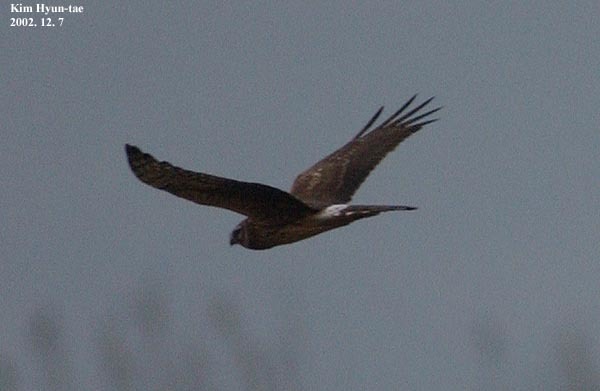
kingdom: Animalia
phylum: Chordata
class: Aves
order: Accipitriformes
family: Accipitridae
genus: Circus
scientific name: Circus cyaneus
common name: Hen harrier
